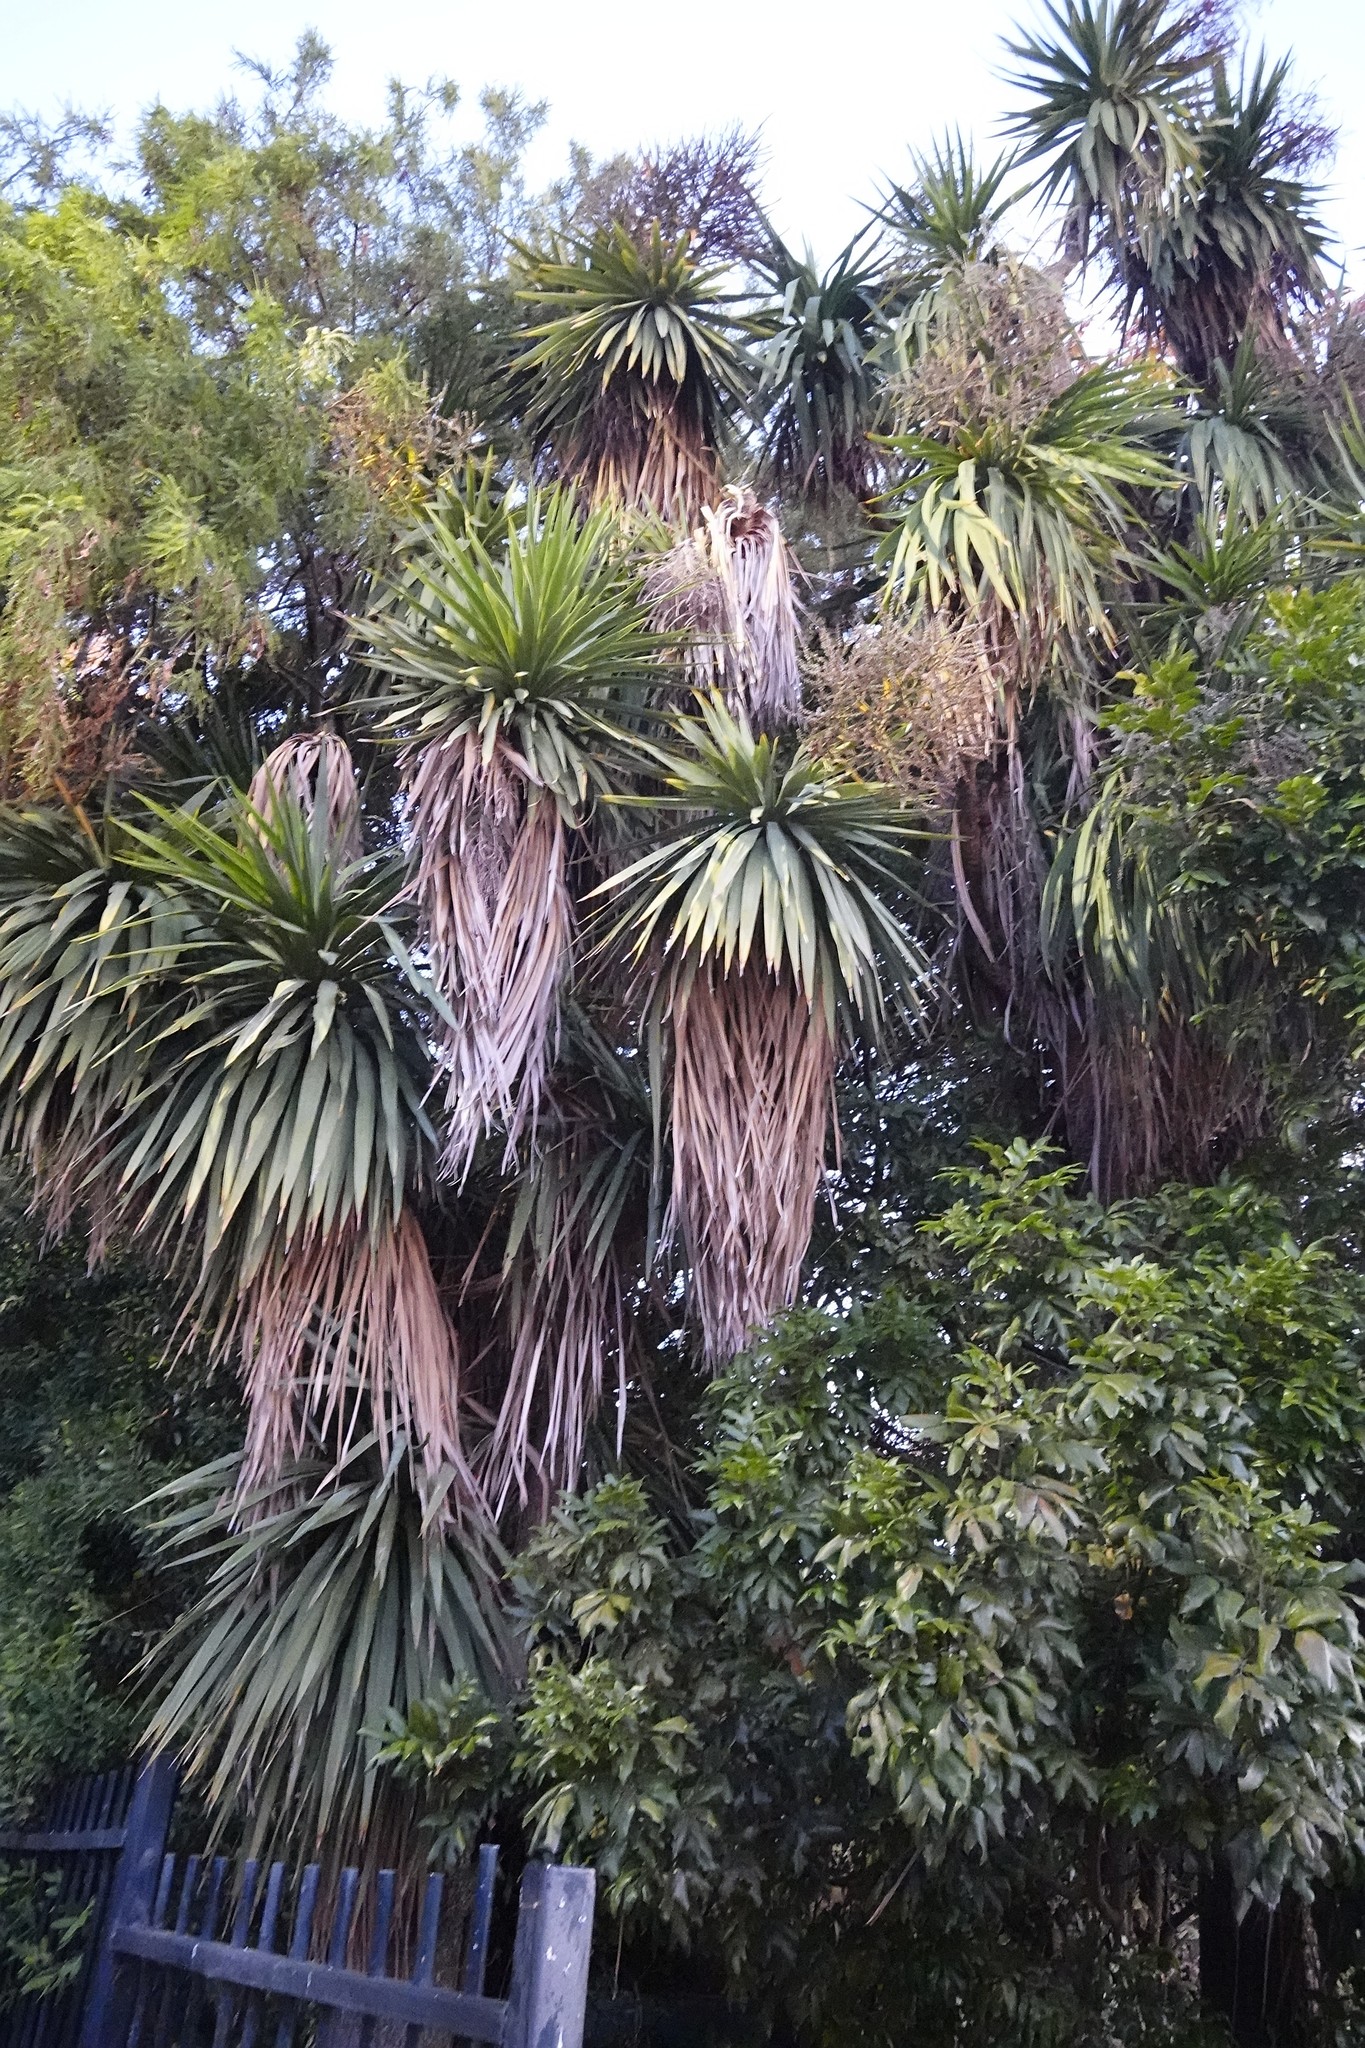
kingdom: Plantae
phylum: Tracheophyta
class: Liliopsida
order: Asparagales
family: Asparagaceae
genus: Cordyline
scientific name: Cordyline australis
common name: Cabbage-palm
